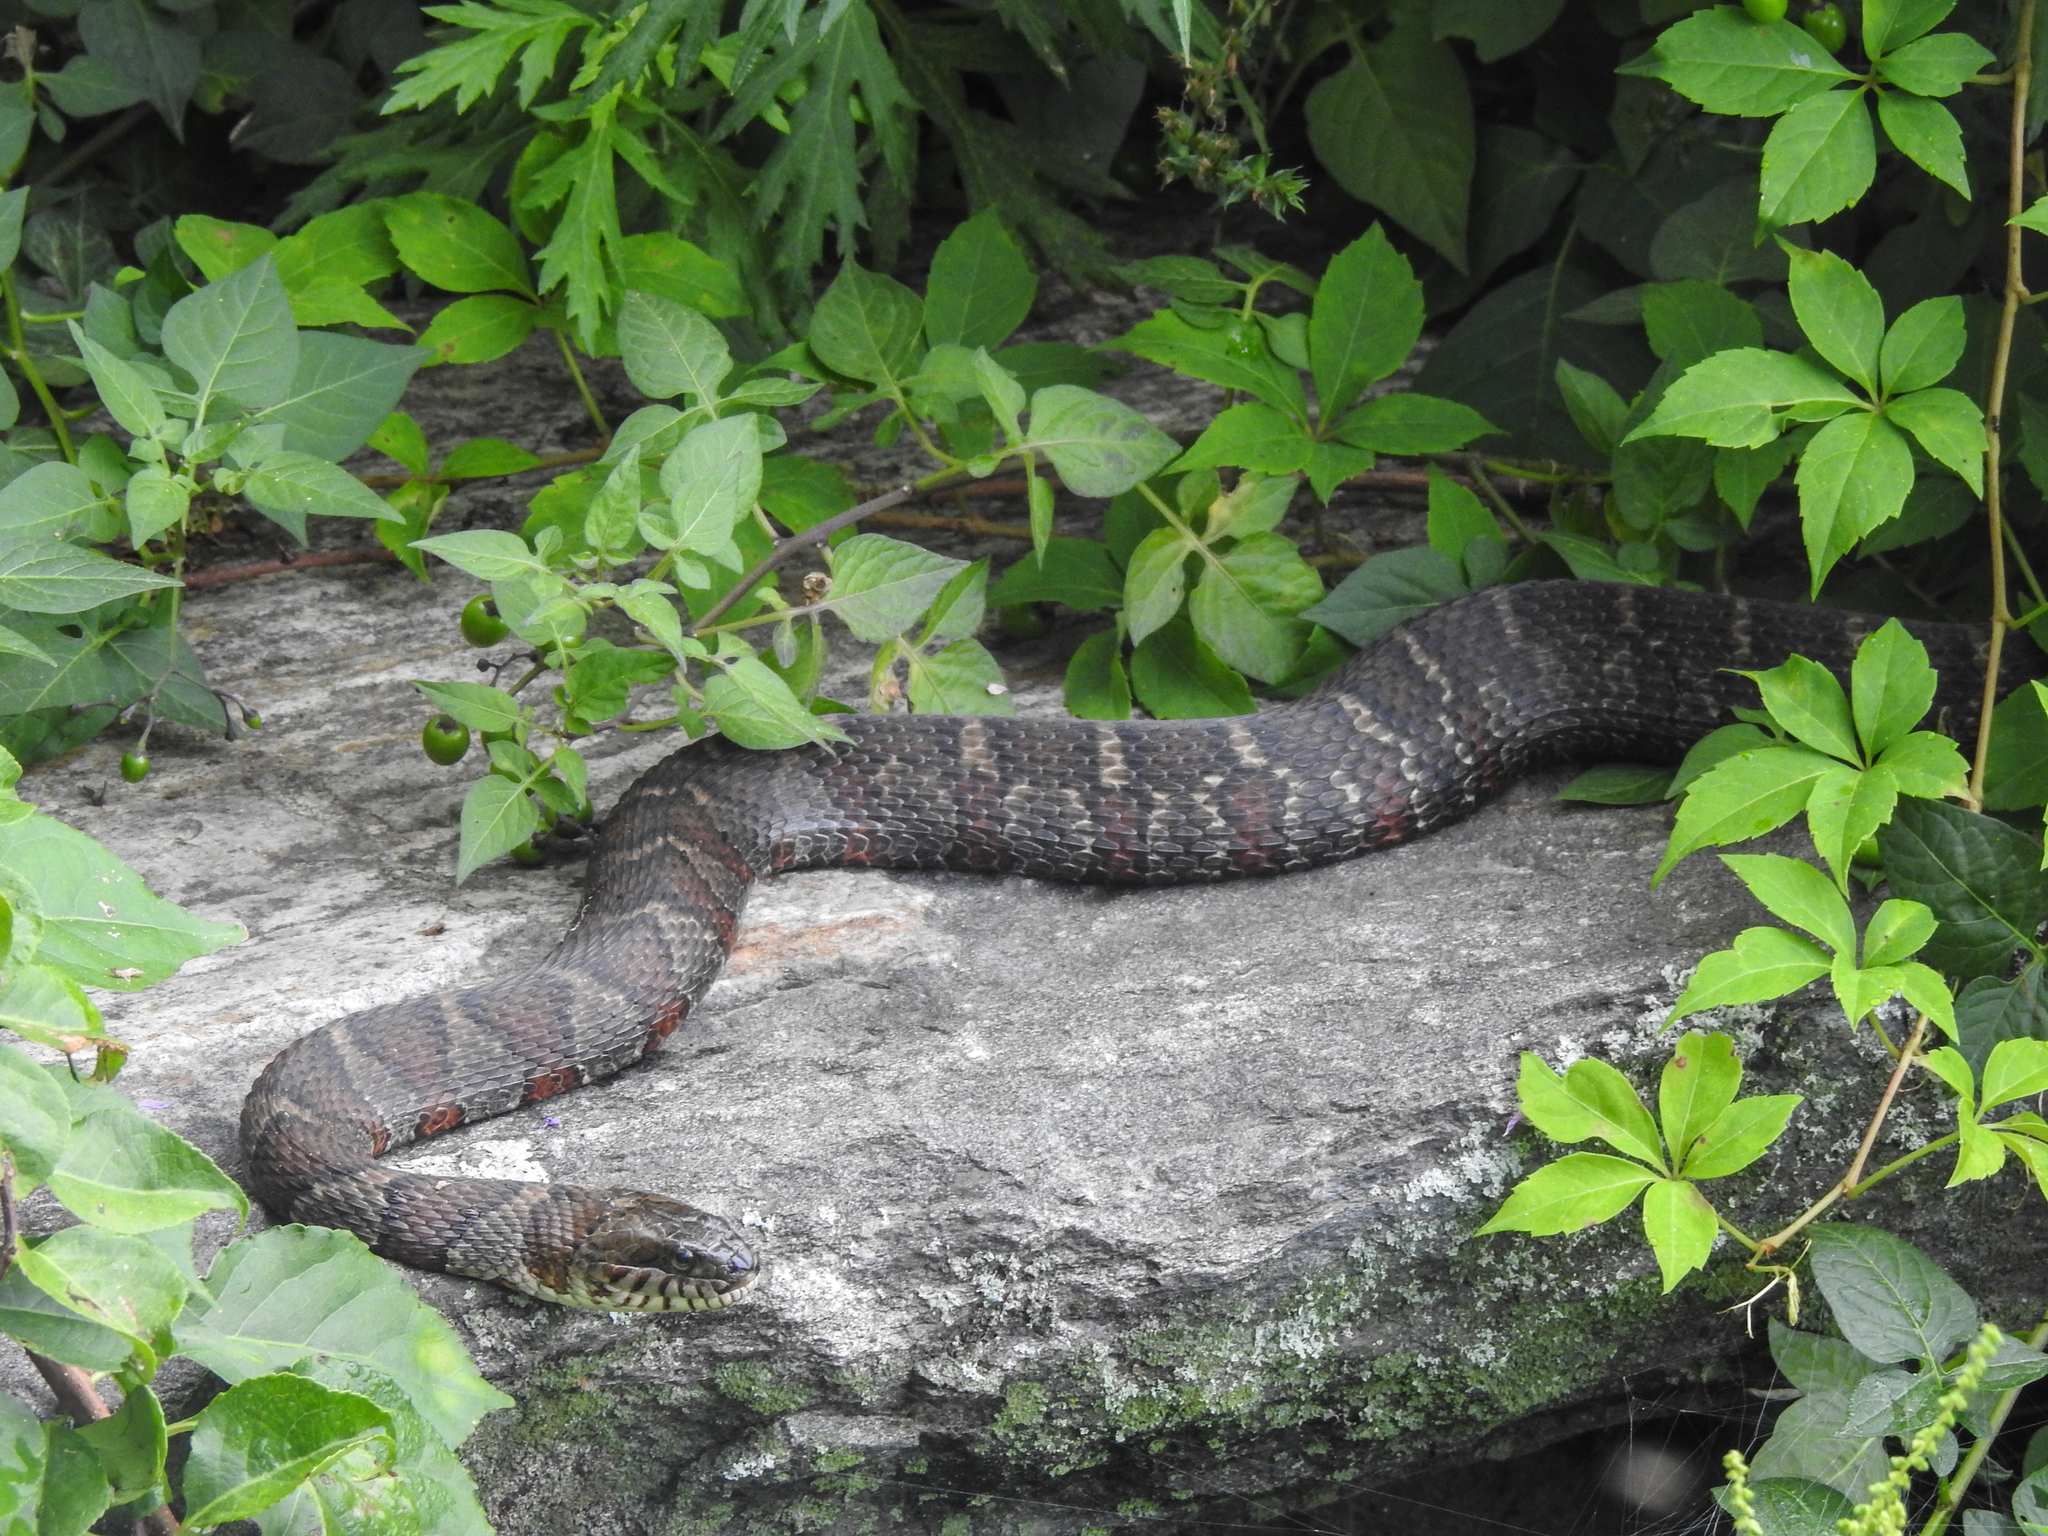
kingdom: Animalia
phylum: Chordata
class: Squamata
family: Colubridae
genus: Nerodia
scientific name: Nerodia sipedon
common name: Northern water snake
